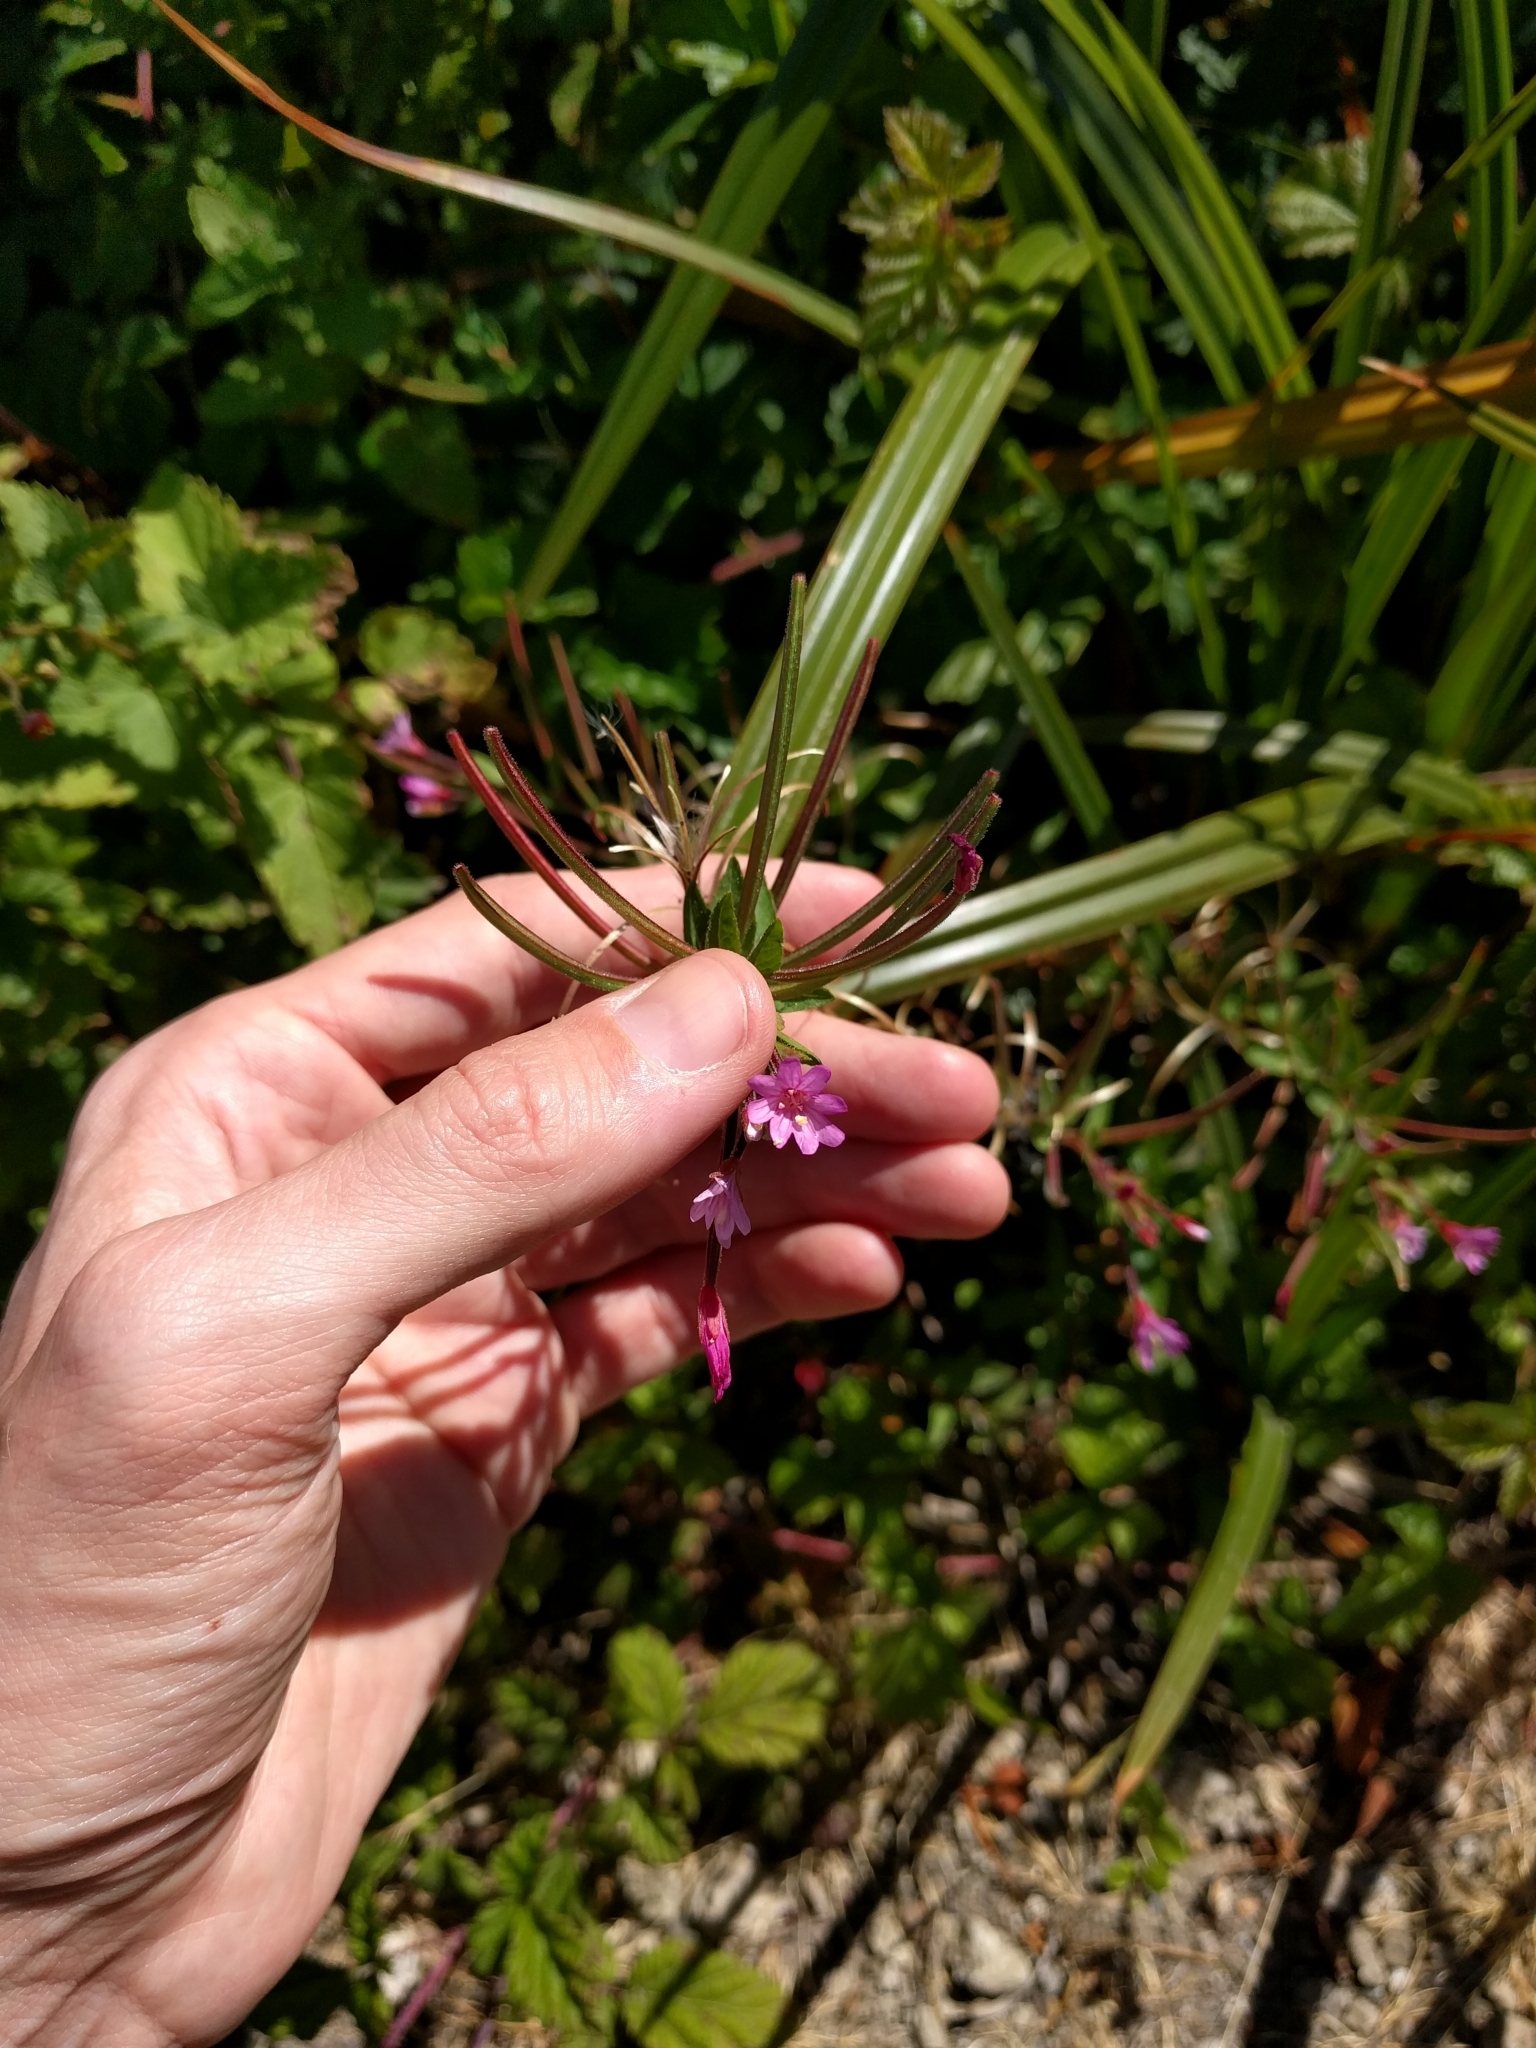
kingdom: Plantae
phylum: Tracheophyta
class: Magnoliopsida
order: Myrtales
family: Onagraceae
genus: Epilobium
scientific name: Epilobium ciliatum
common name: American willowherb
